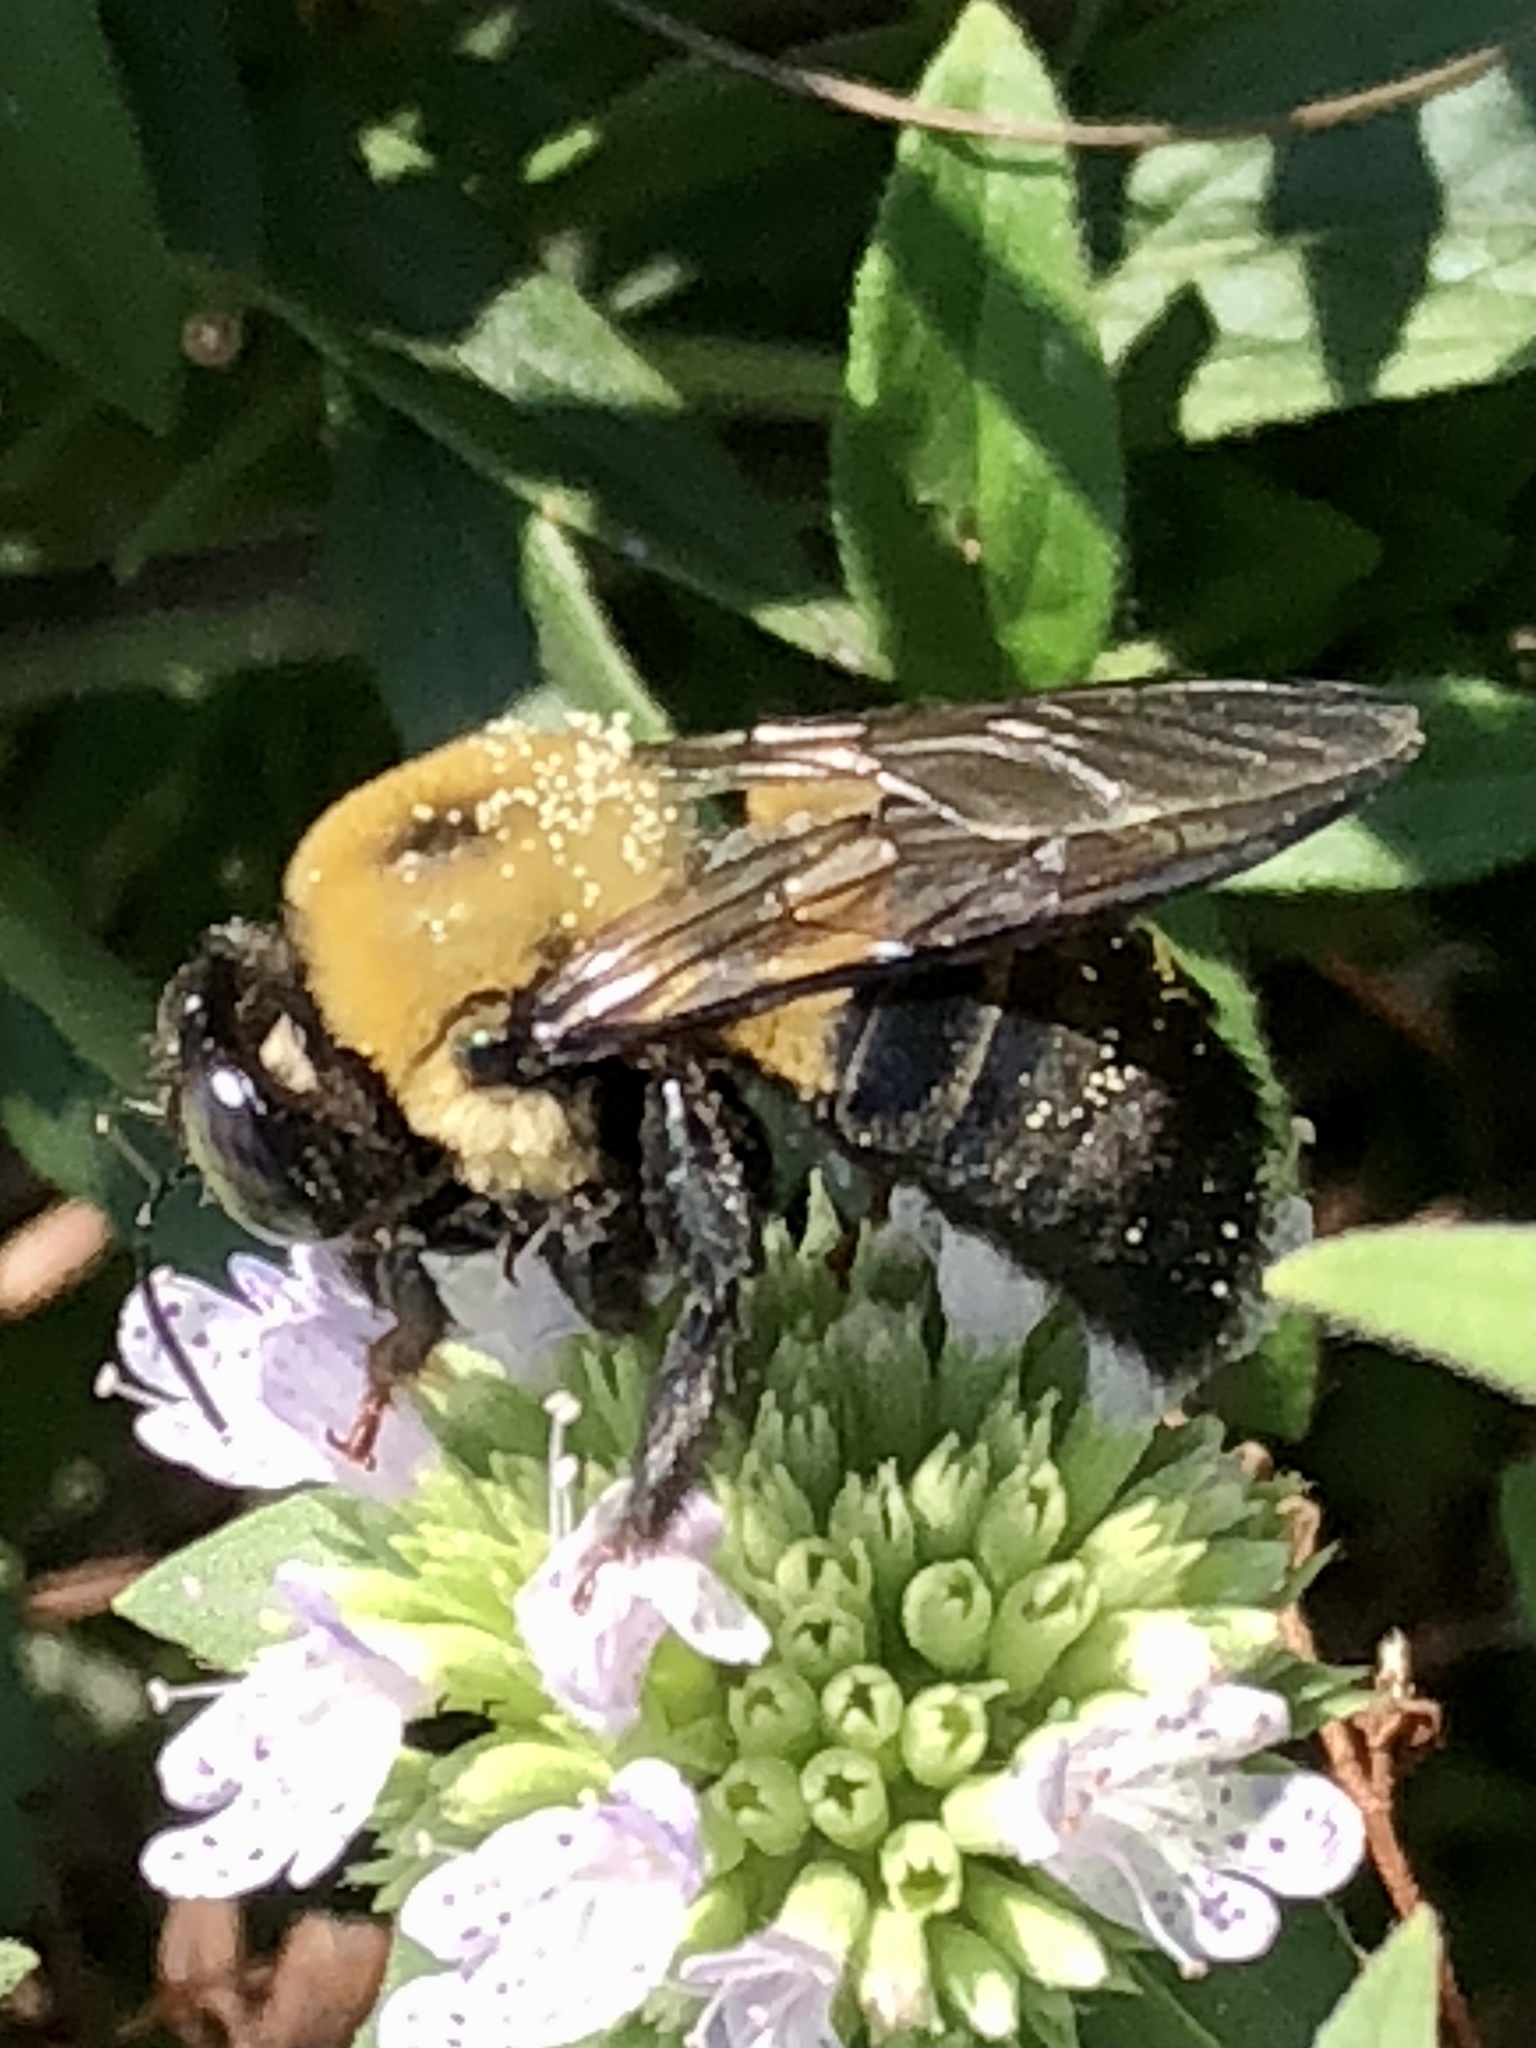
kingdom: Animalia
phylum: Arthropoda
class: Insecta
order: Hymenoptera
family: Apidae
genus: Xylocopa
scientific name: Xylocopa virginica
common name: Carpenter bee
